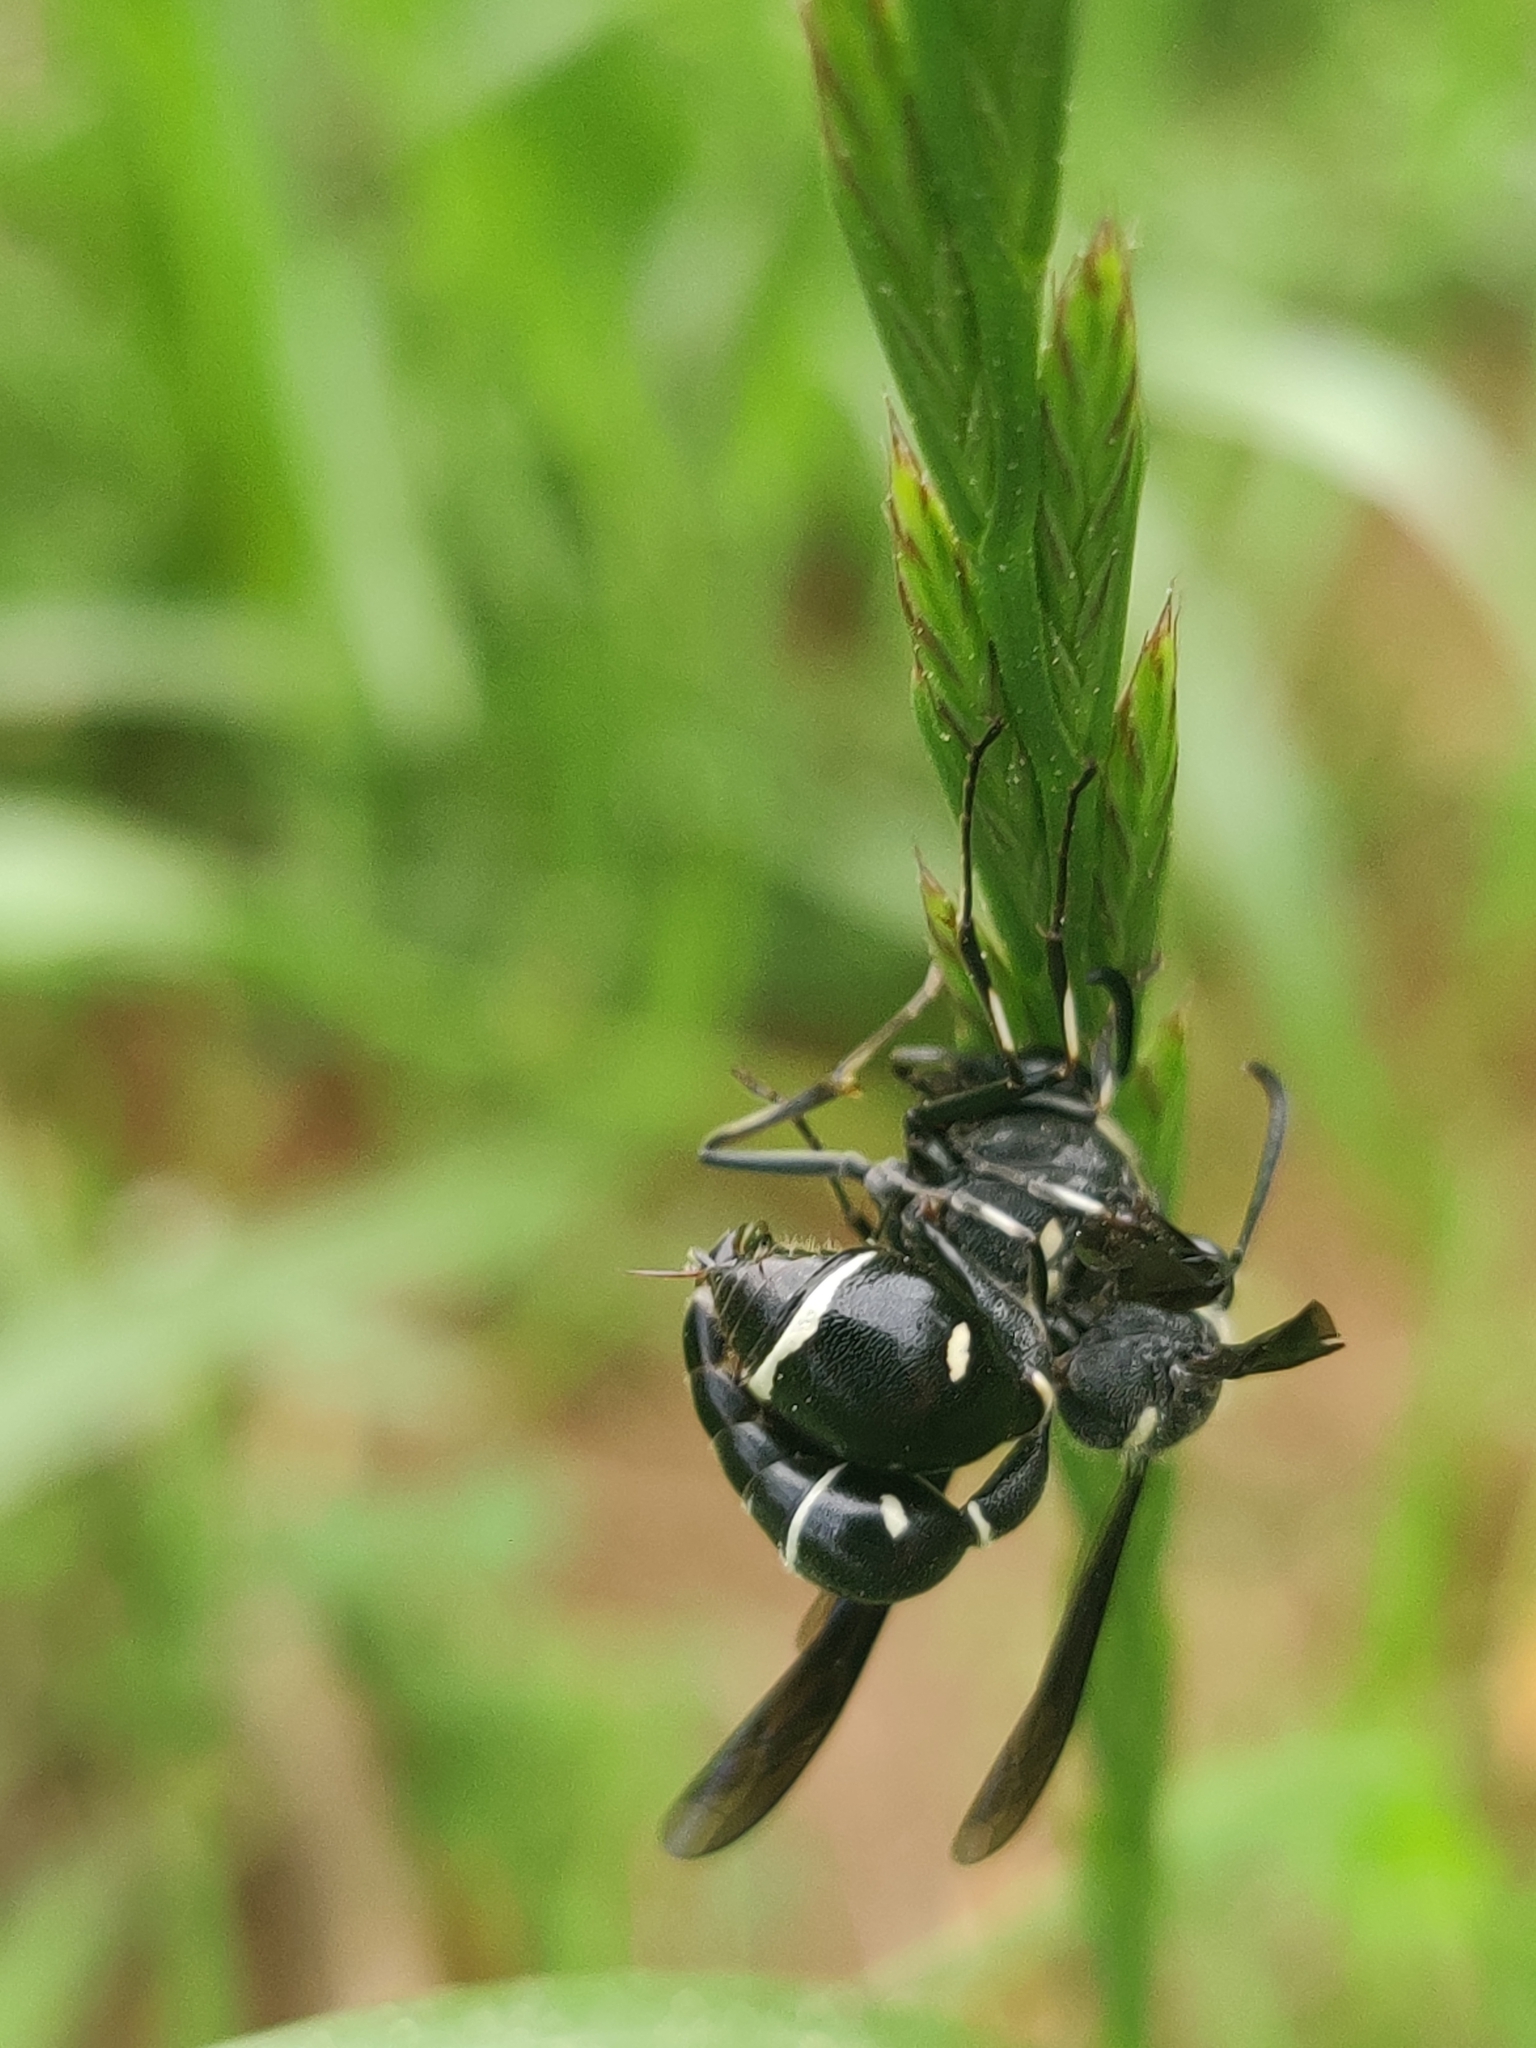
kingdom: Animalia
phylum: Arthropoda
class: Insecta
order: Hymenoptera
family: Vespidae
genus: Eumenes
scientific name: Eumenes fraternus
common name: Fraternal potter wasp
